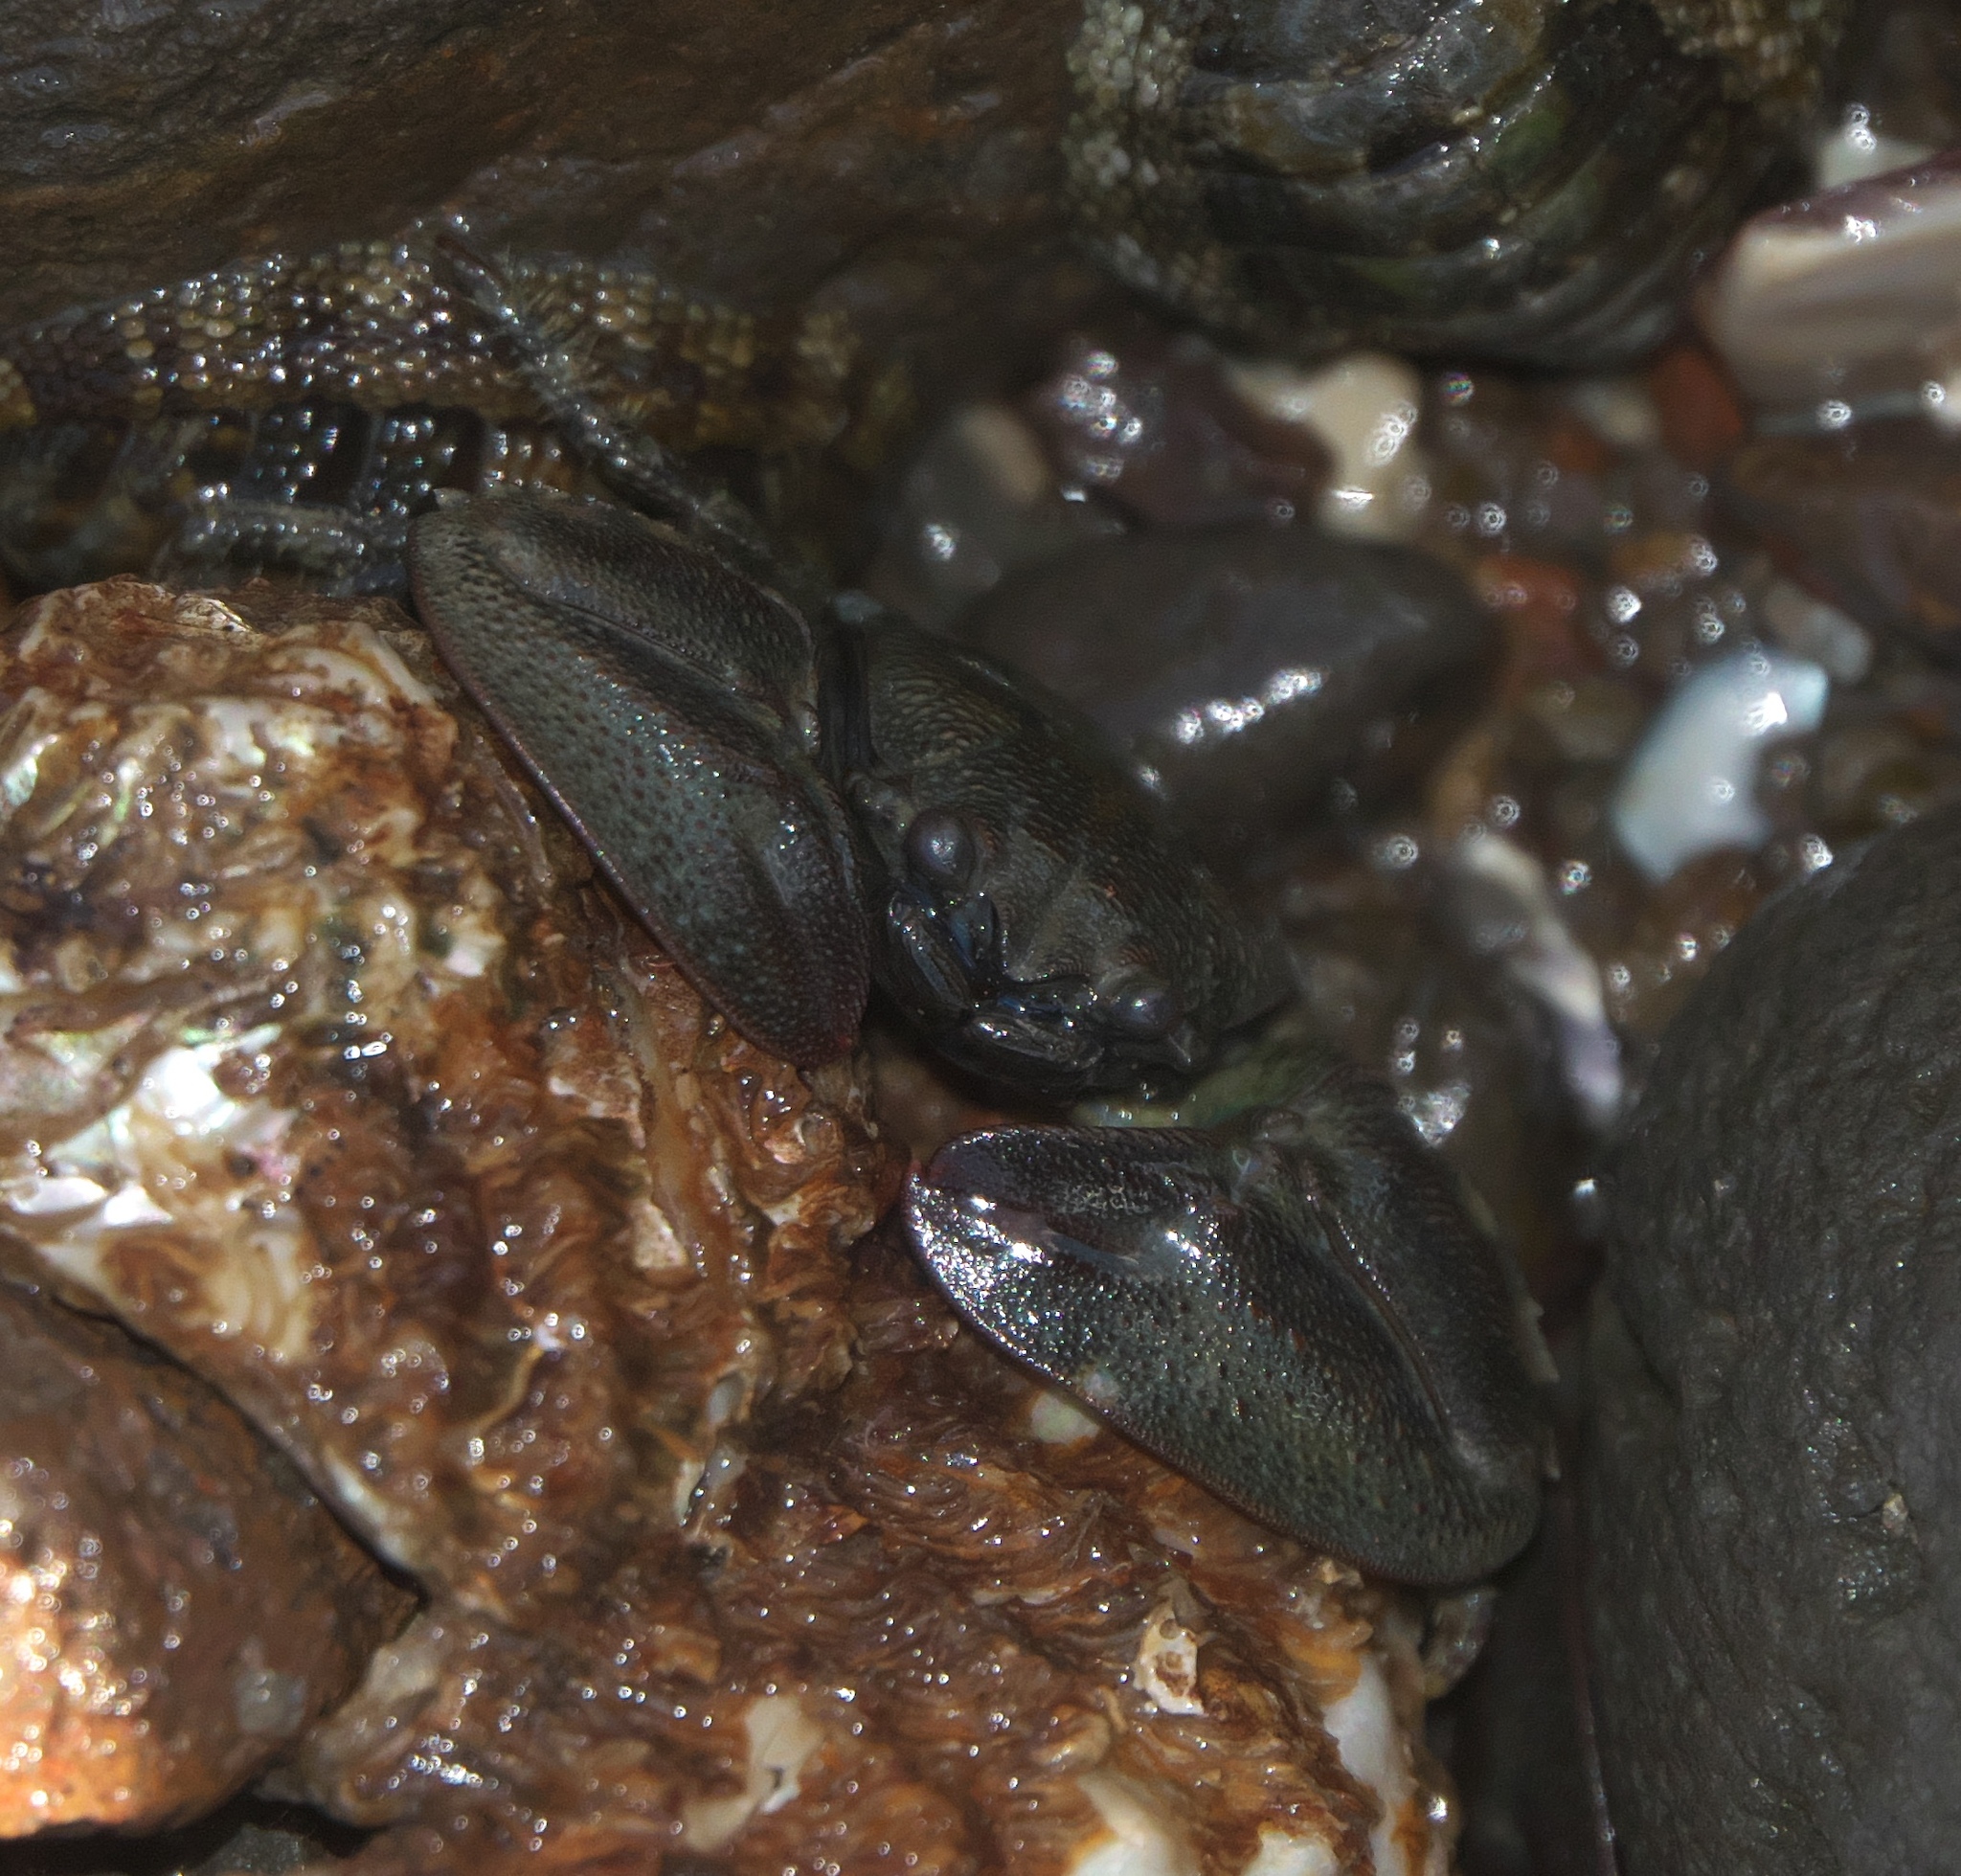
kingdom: Animalia
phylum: Arthropoda
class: Malacostraca
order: Decapoda
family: Porcellanidae
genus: Petrolisthes
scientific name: Petrolisthes elongatus
